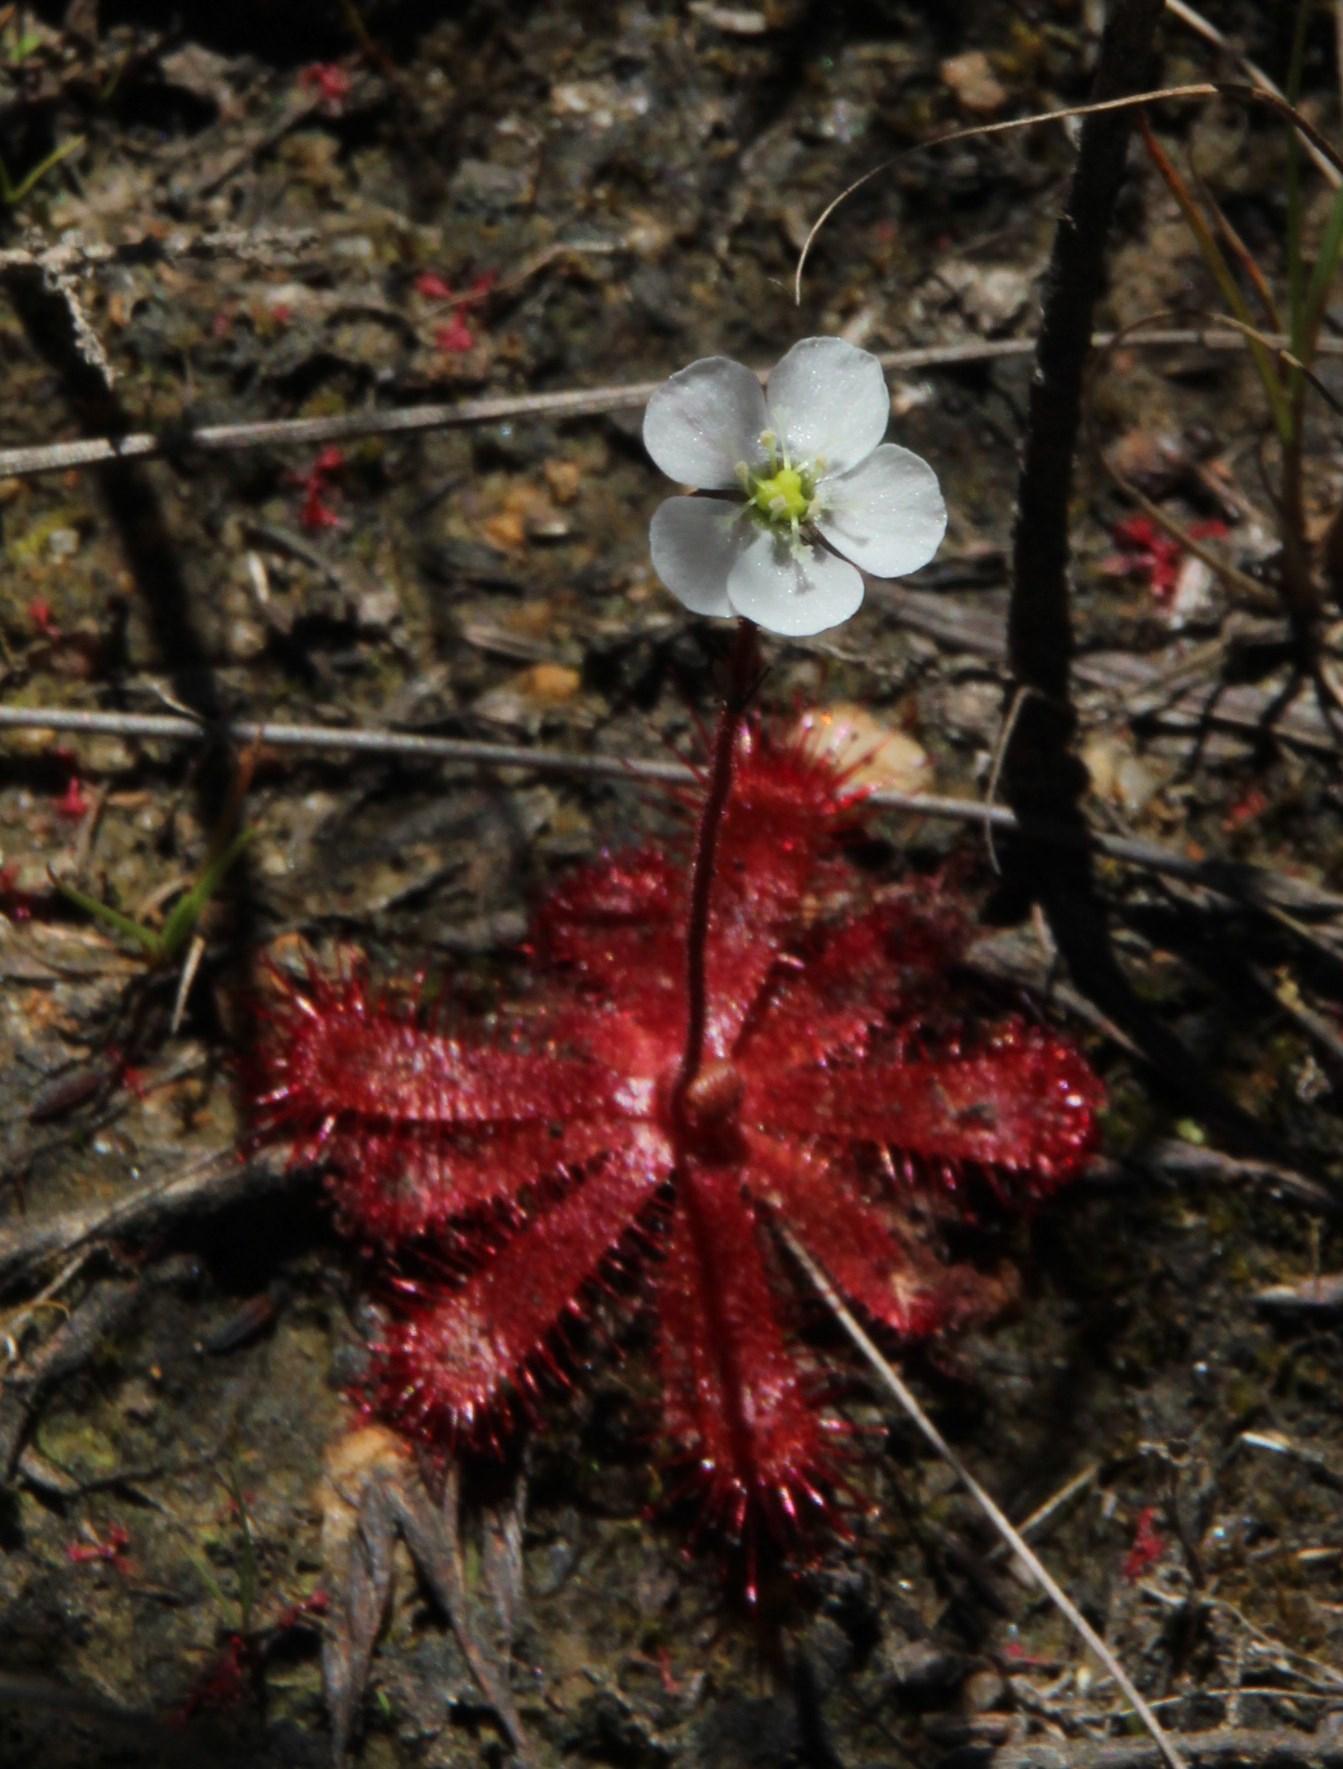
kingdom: Plantae
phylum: Tracheophyta
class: Magnoliopsida
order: Caryophyllales
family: Droseraceae
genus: Drosera
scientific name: Drosera trinervia
